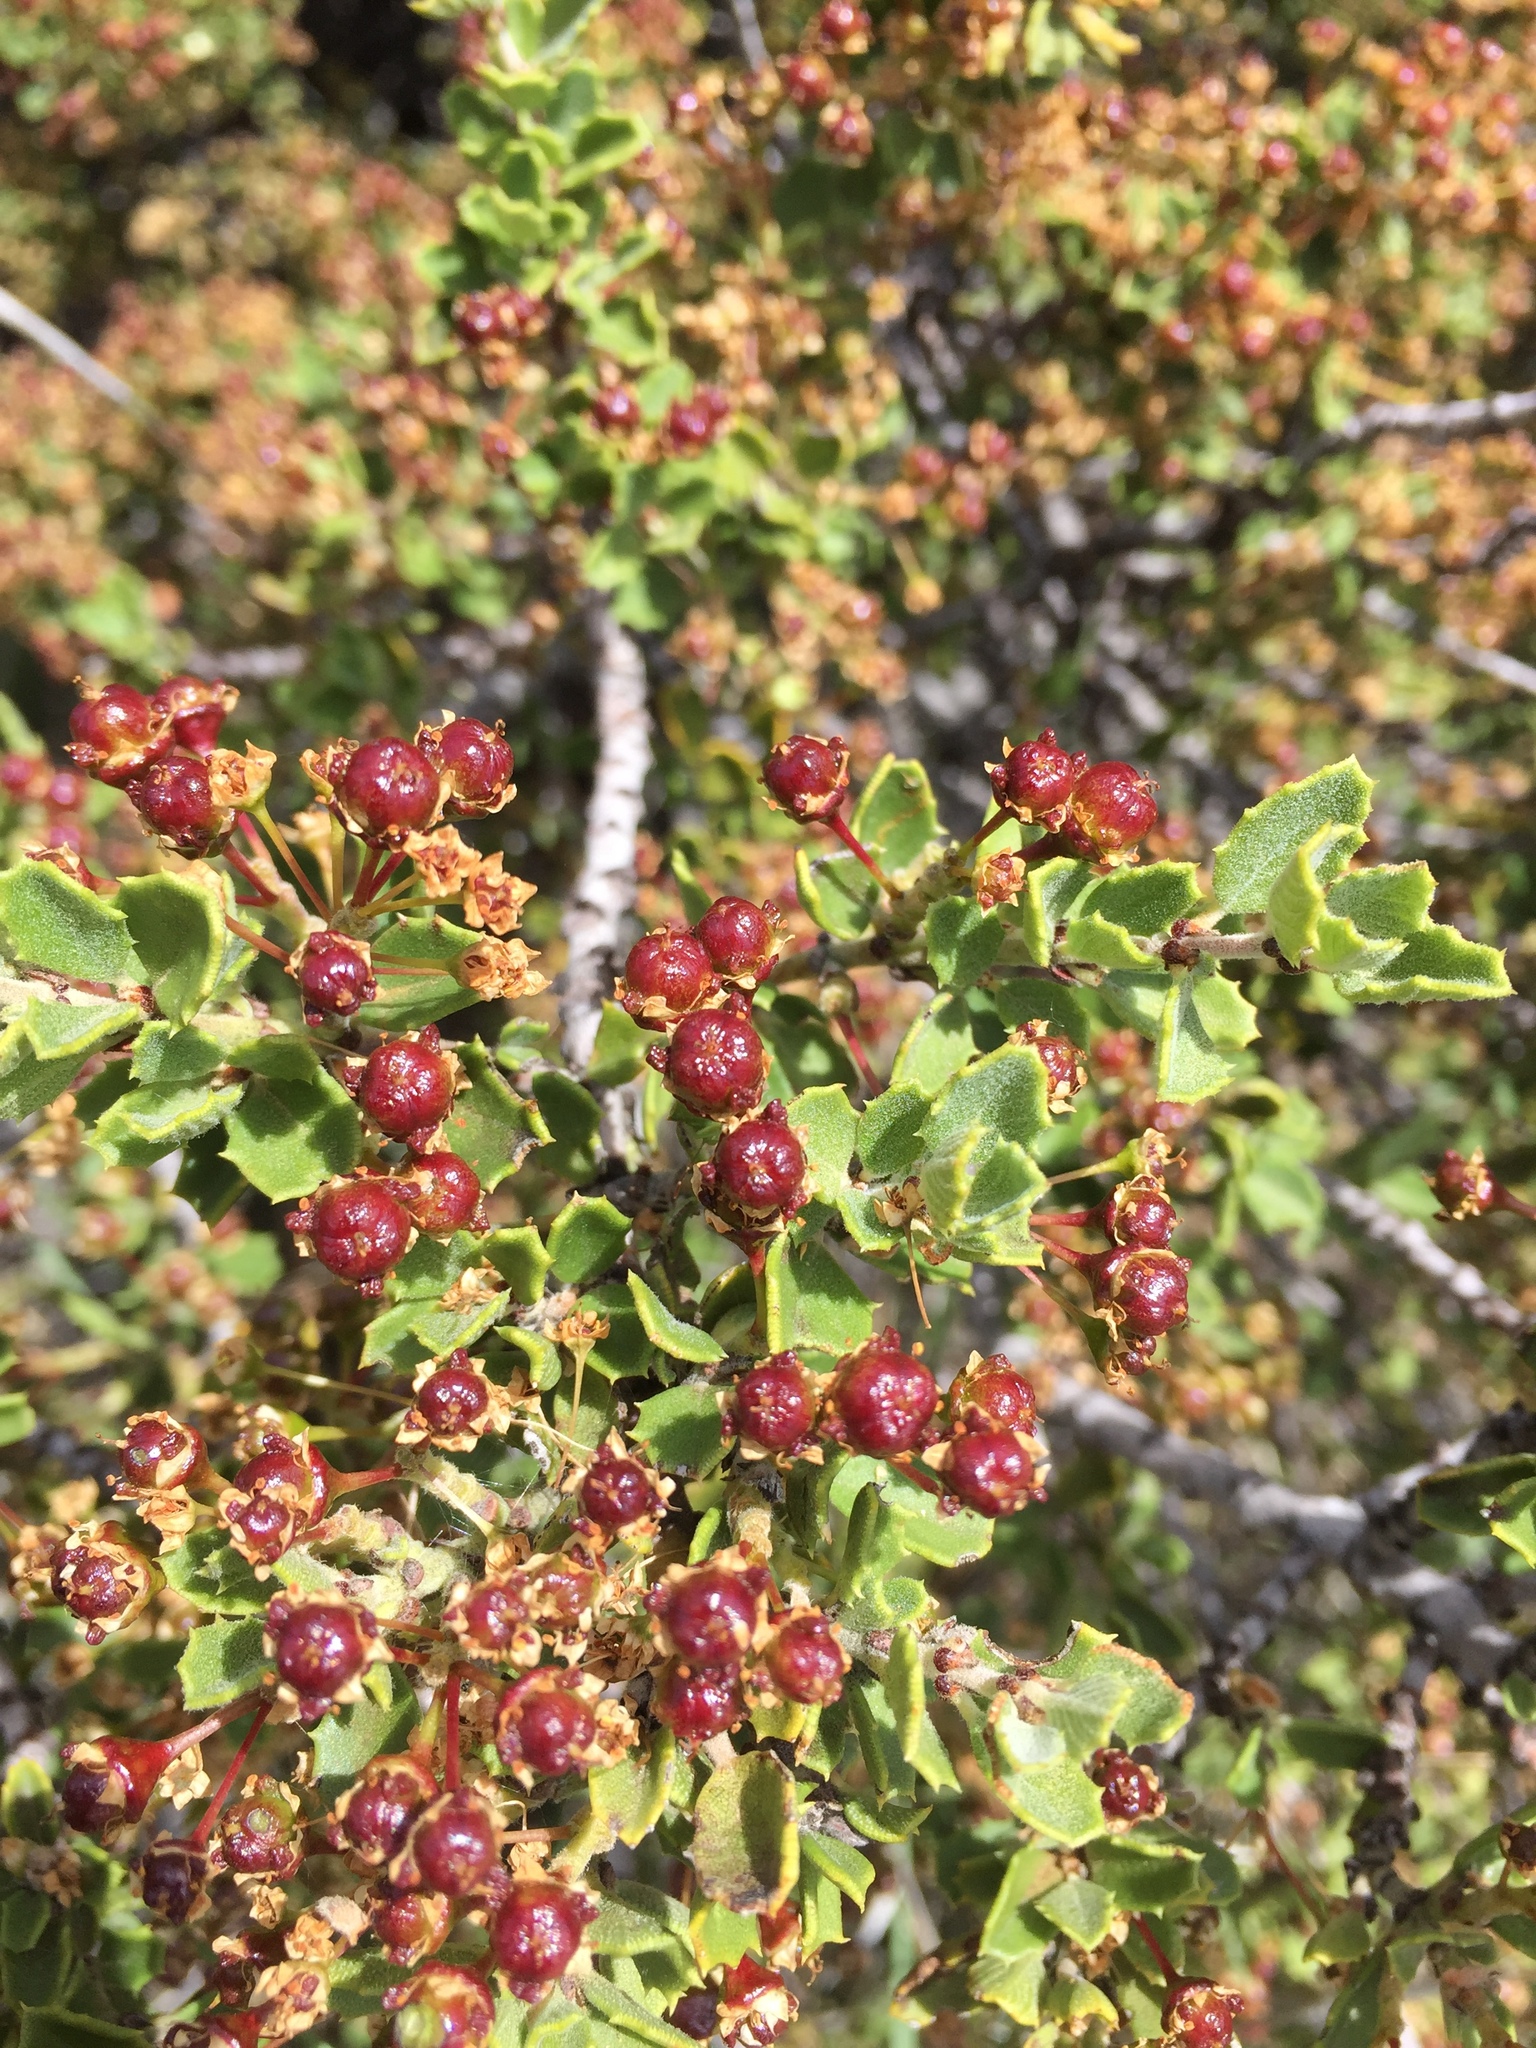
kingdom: Plantae
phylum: Tracheophyta
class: Magnoliopsida
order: Rosales
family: Rhamnaceae
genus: Ceanothus
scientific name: Ceanothus perplexans
